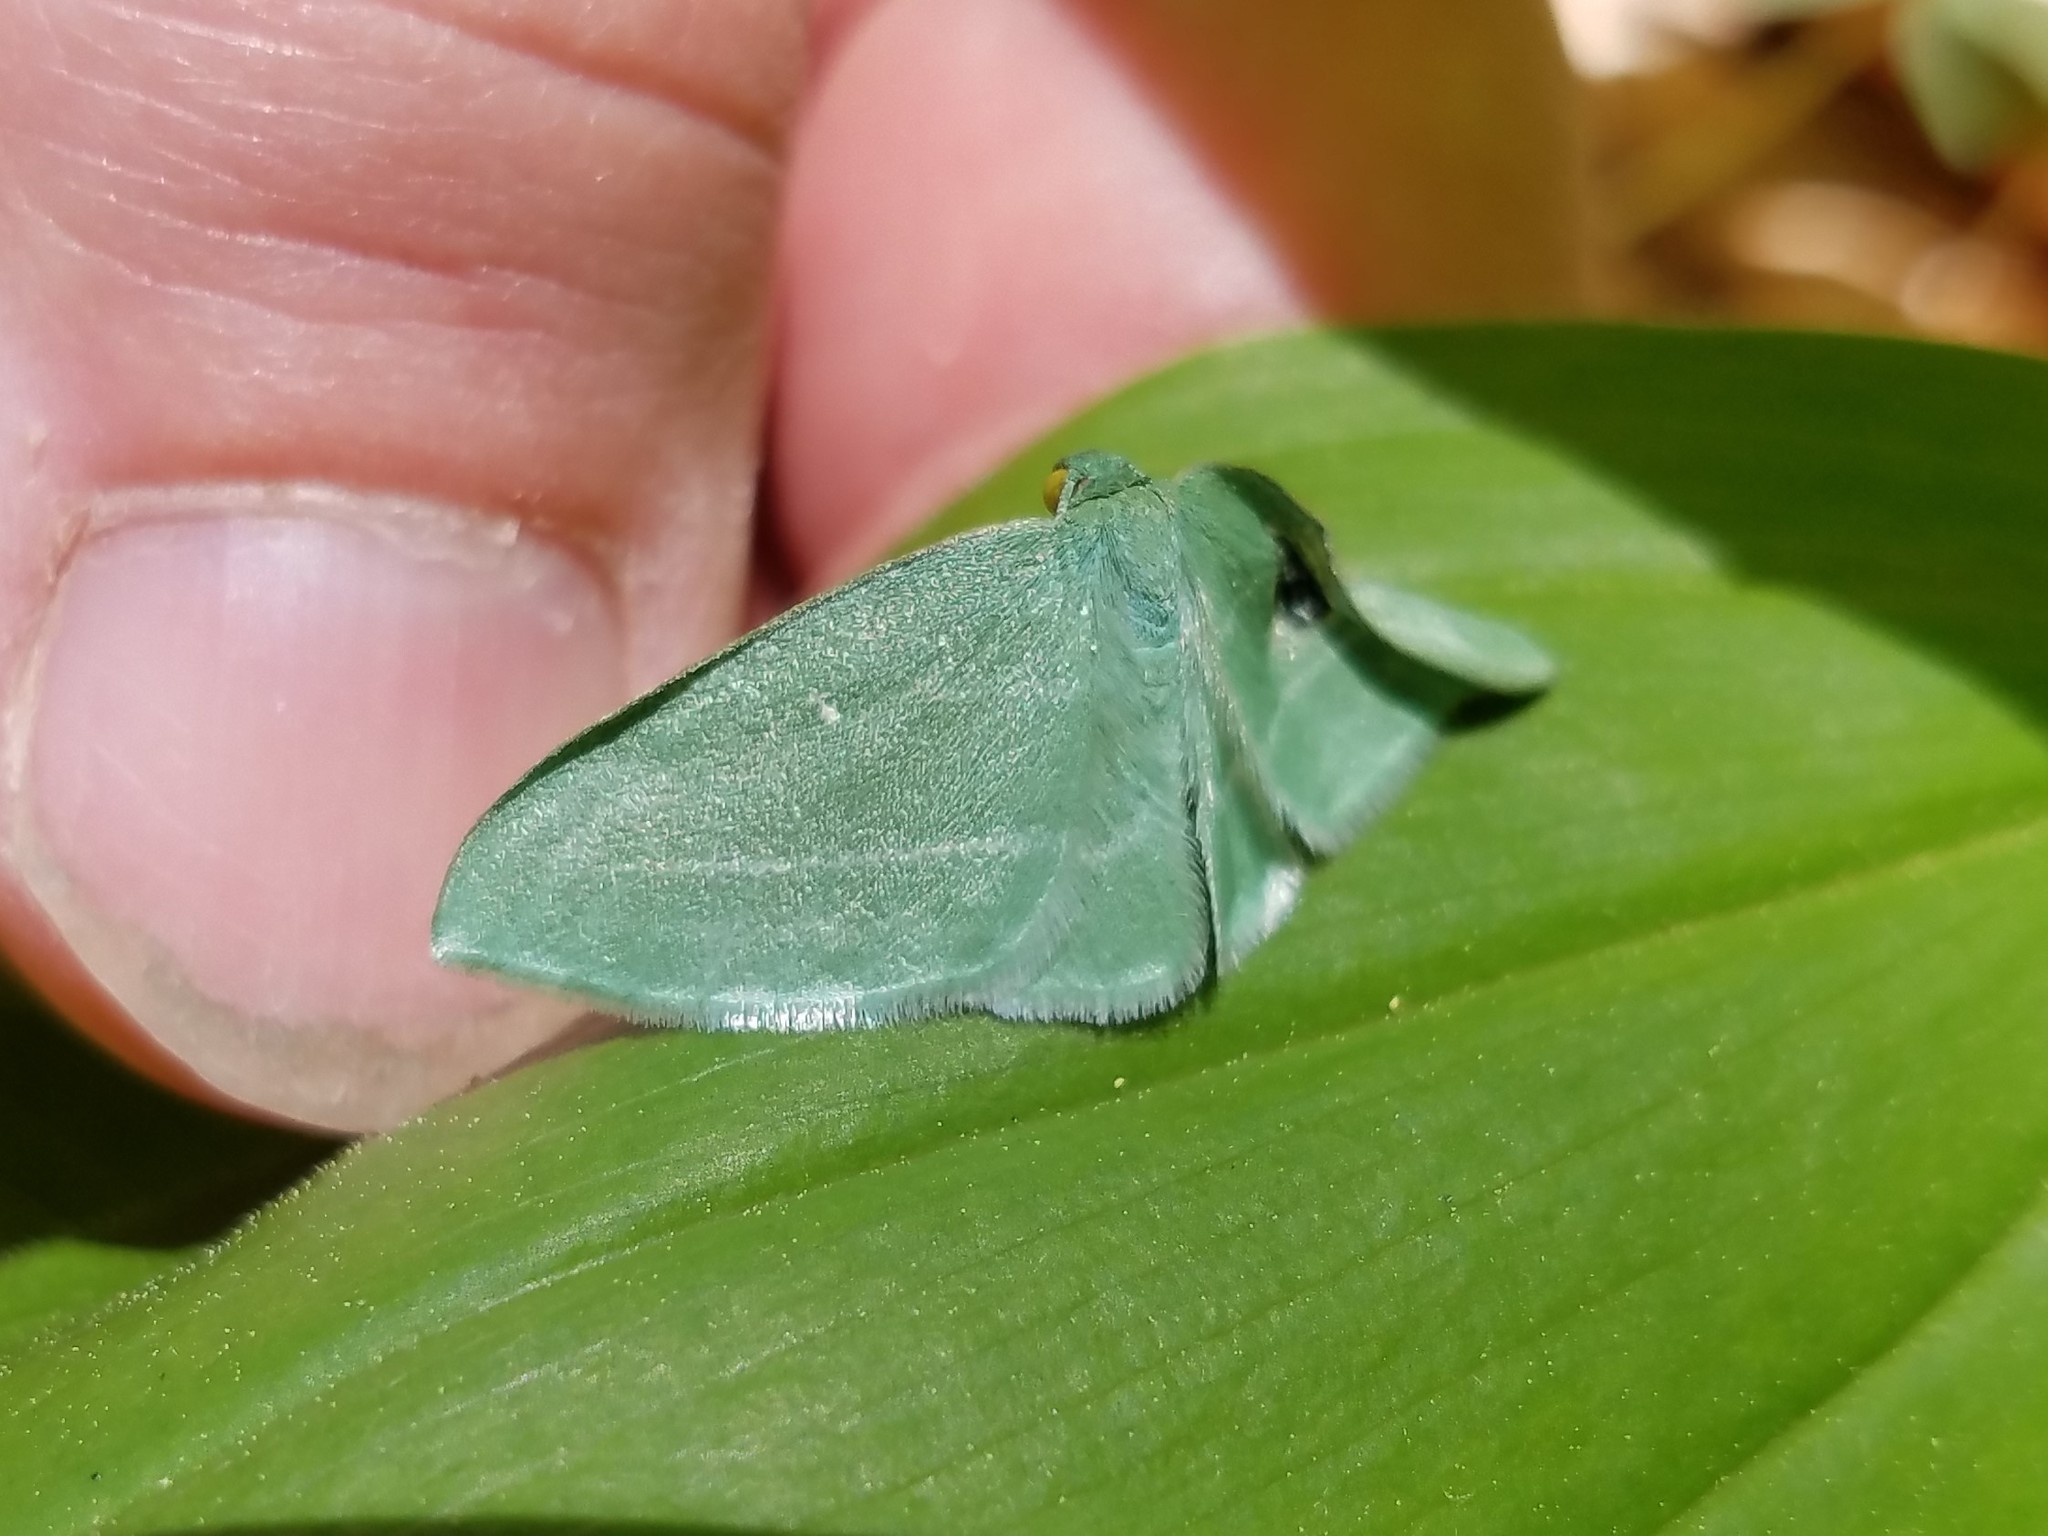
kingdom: Animalia
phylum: Arthropoda
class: Insecta
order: Lepidoptera
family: Geometridae
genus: Dyspteris
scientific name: Dyspteris abortivaria
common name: Bad-wing
